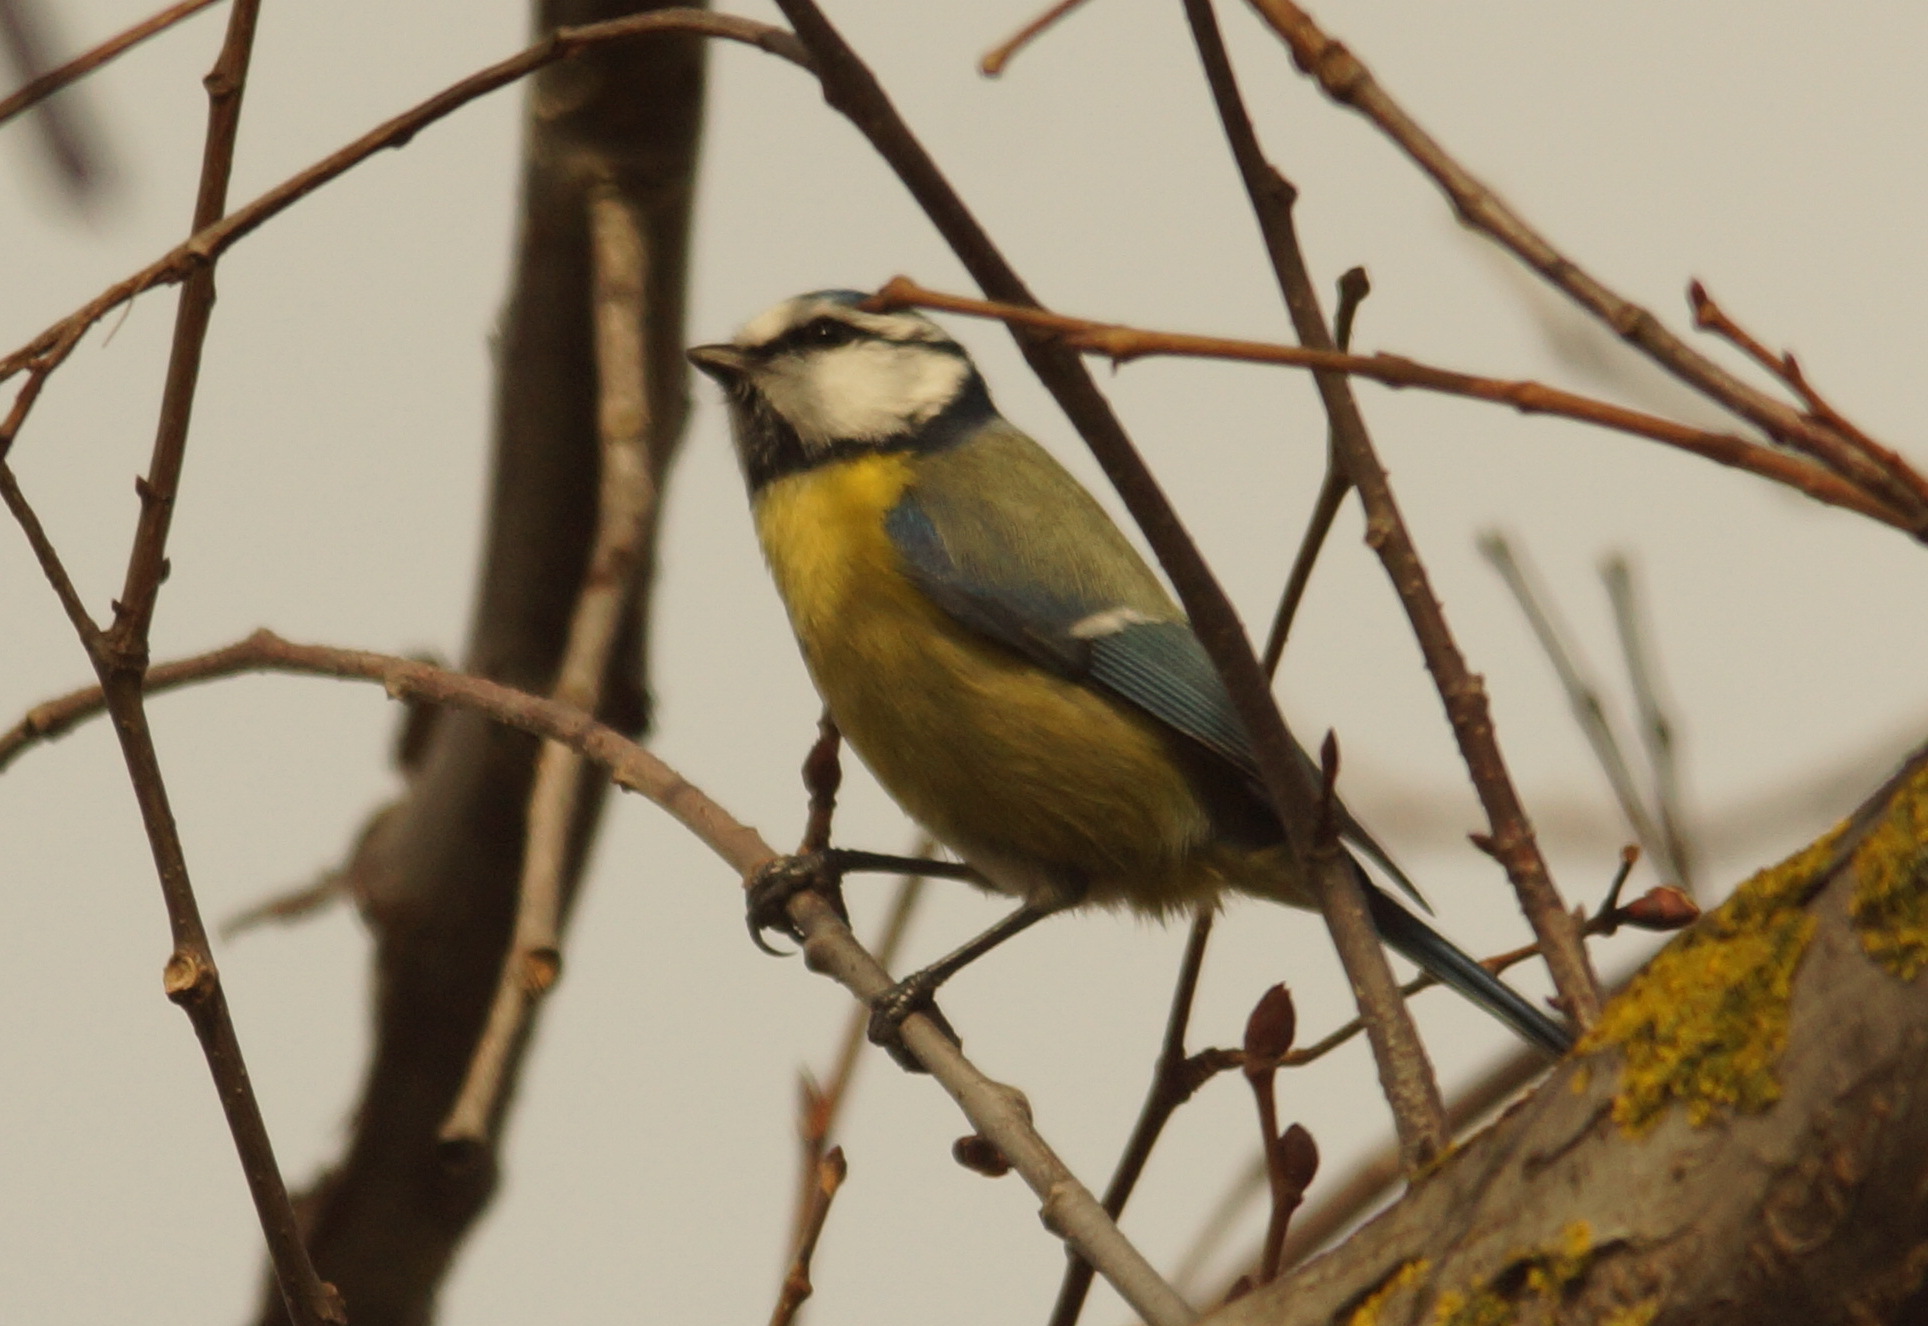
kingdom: Animalia
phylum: Chordata
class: Aves
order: Passeriformes
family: Paridae
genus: Cyanistes
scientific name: Cyanistes caeruleus
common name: Eurasian blue tit
